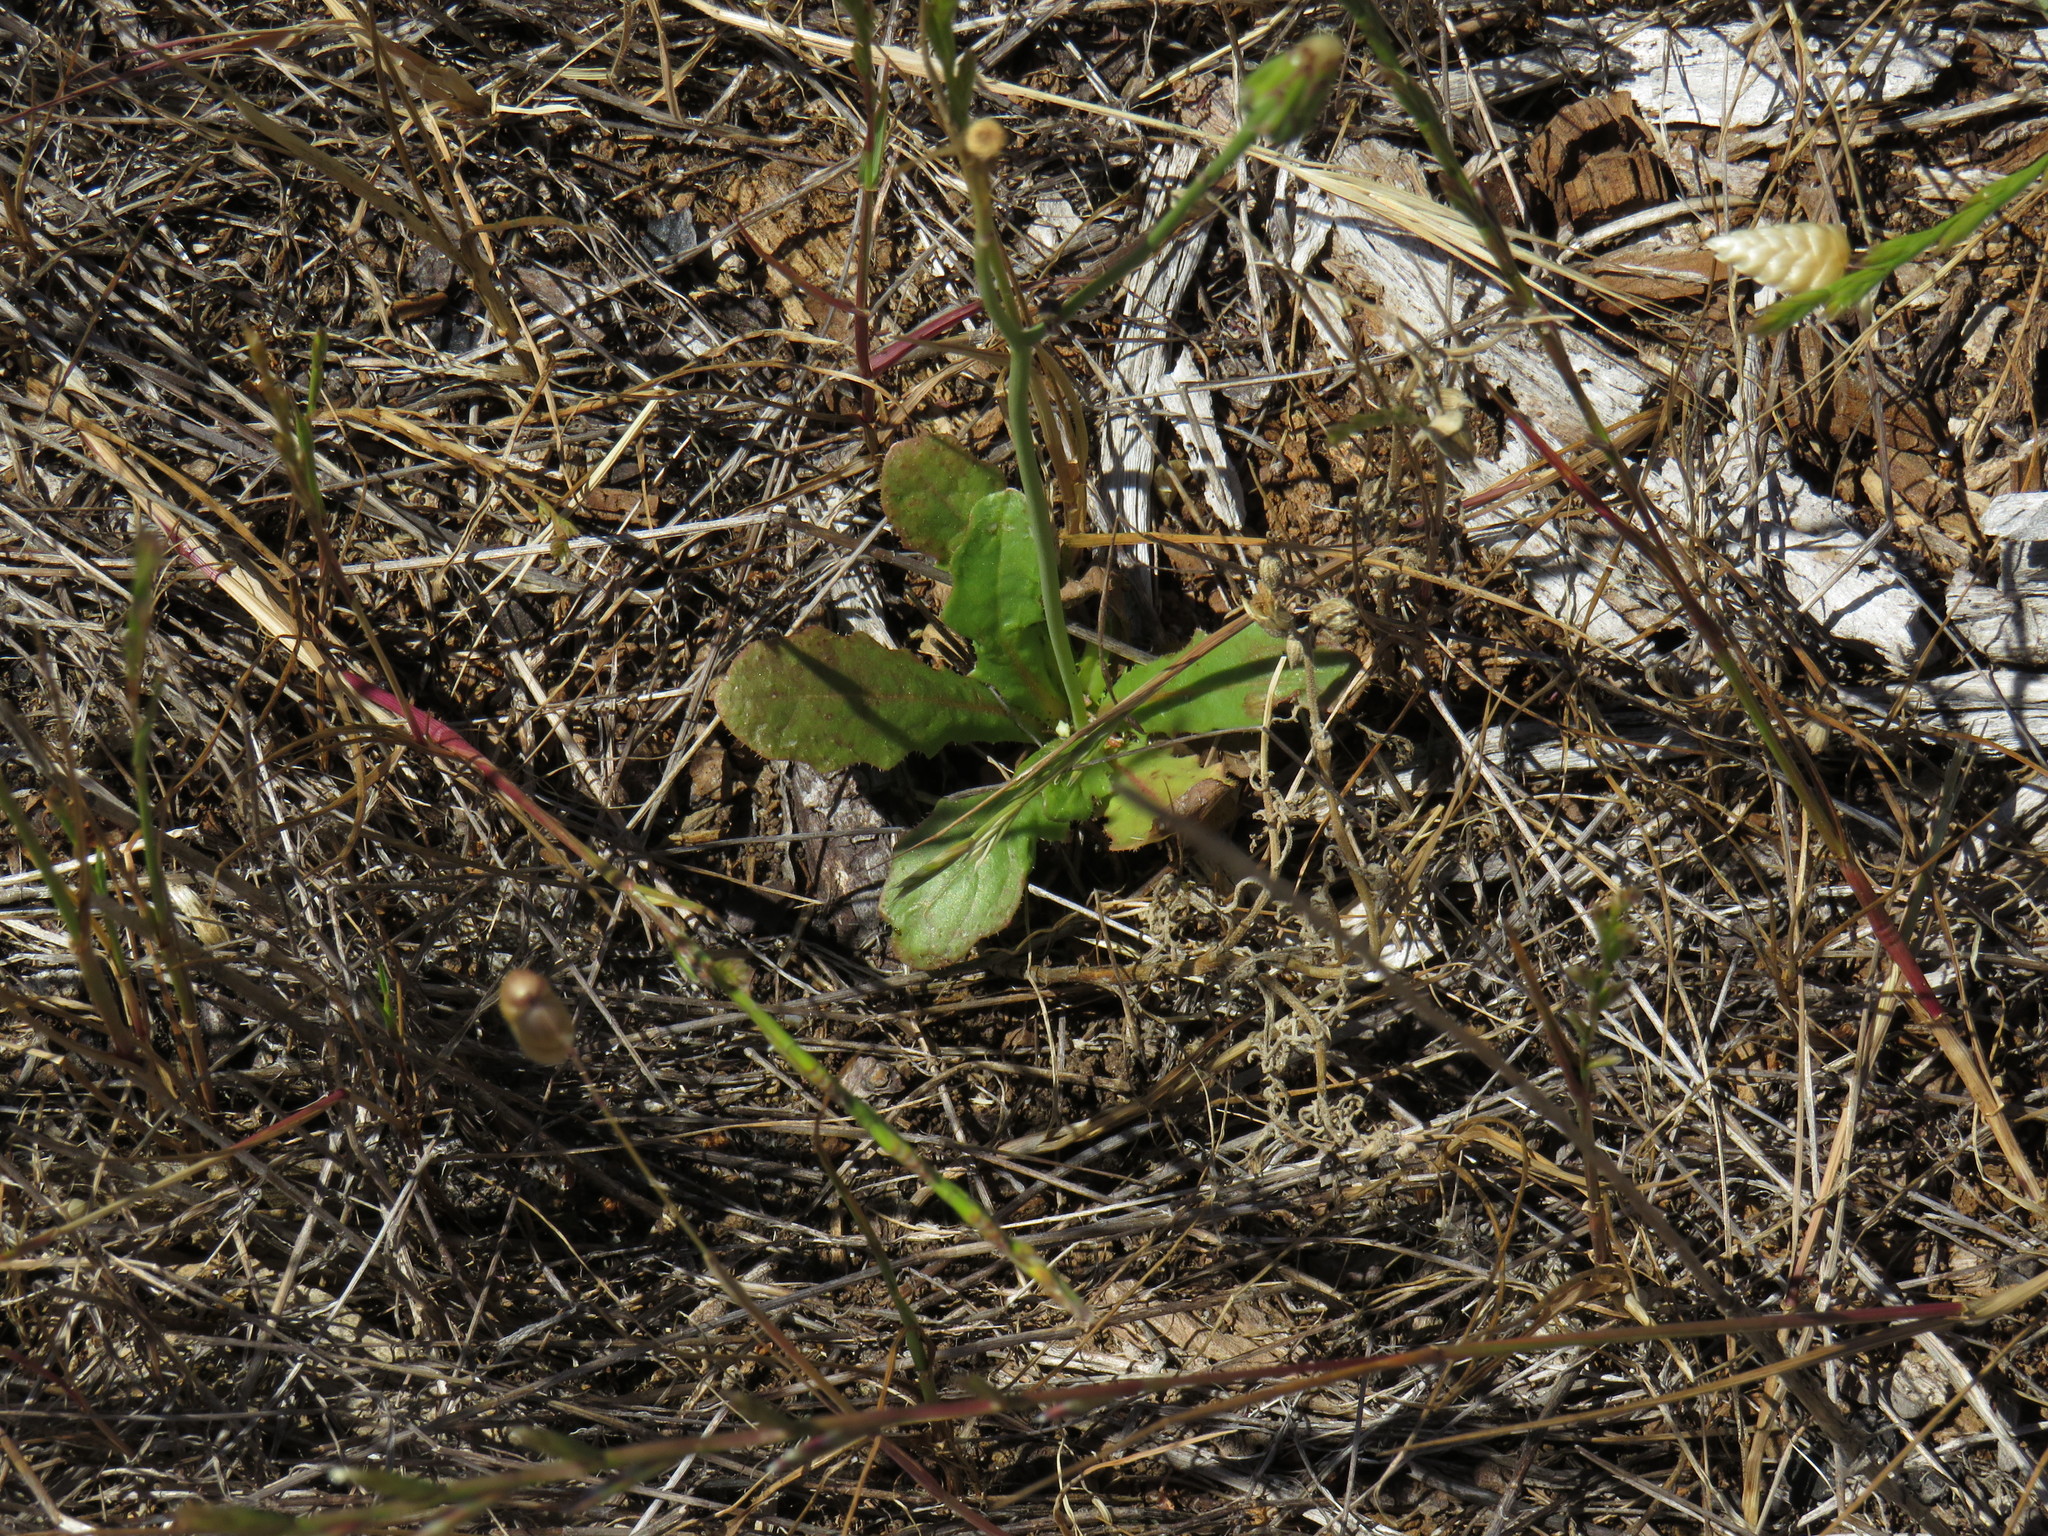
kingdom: Plantae
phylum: Tracheophyta
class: Magnoliopsida
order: Asterales
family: Asteraceae
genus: Hypochaeris
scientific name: Hypochaeris glabra
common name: Smooth catsear
